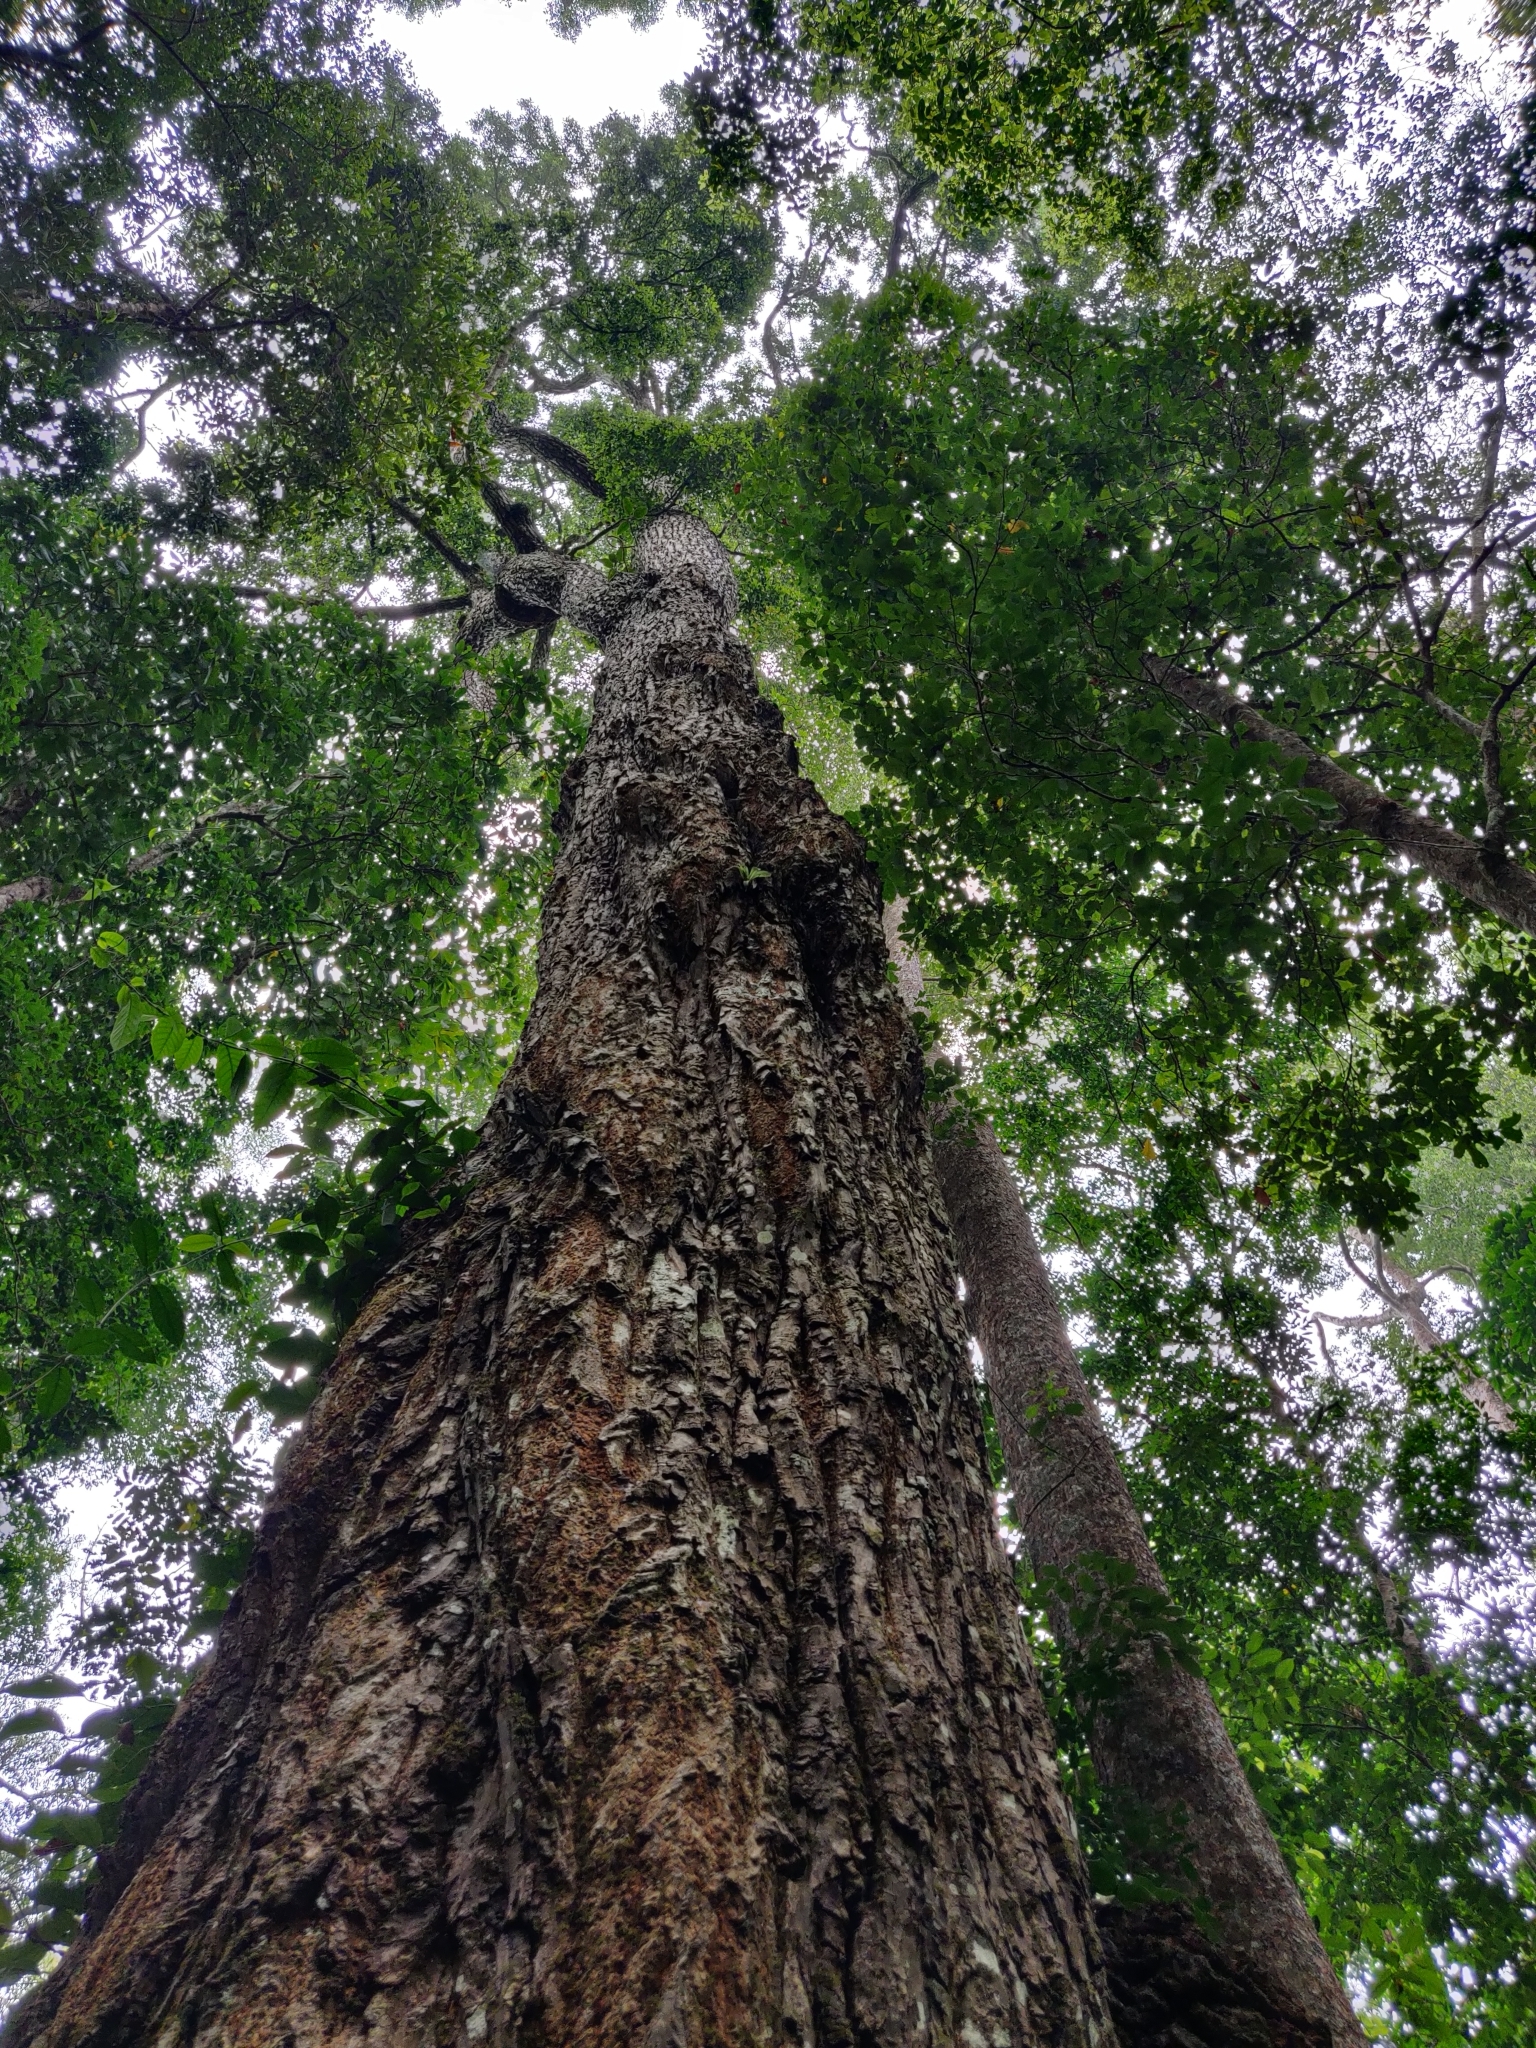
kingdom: Plantae
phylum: Tracheophyta
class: Magnoliopsida
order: Malpighiales
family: Calophyllaceae
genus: Calophyllum
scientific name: Calophyllum polyanthum
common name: Poonspar
